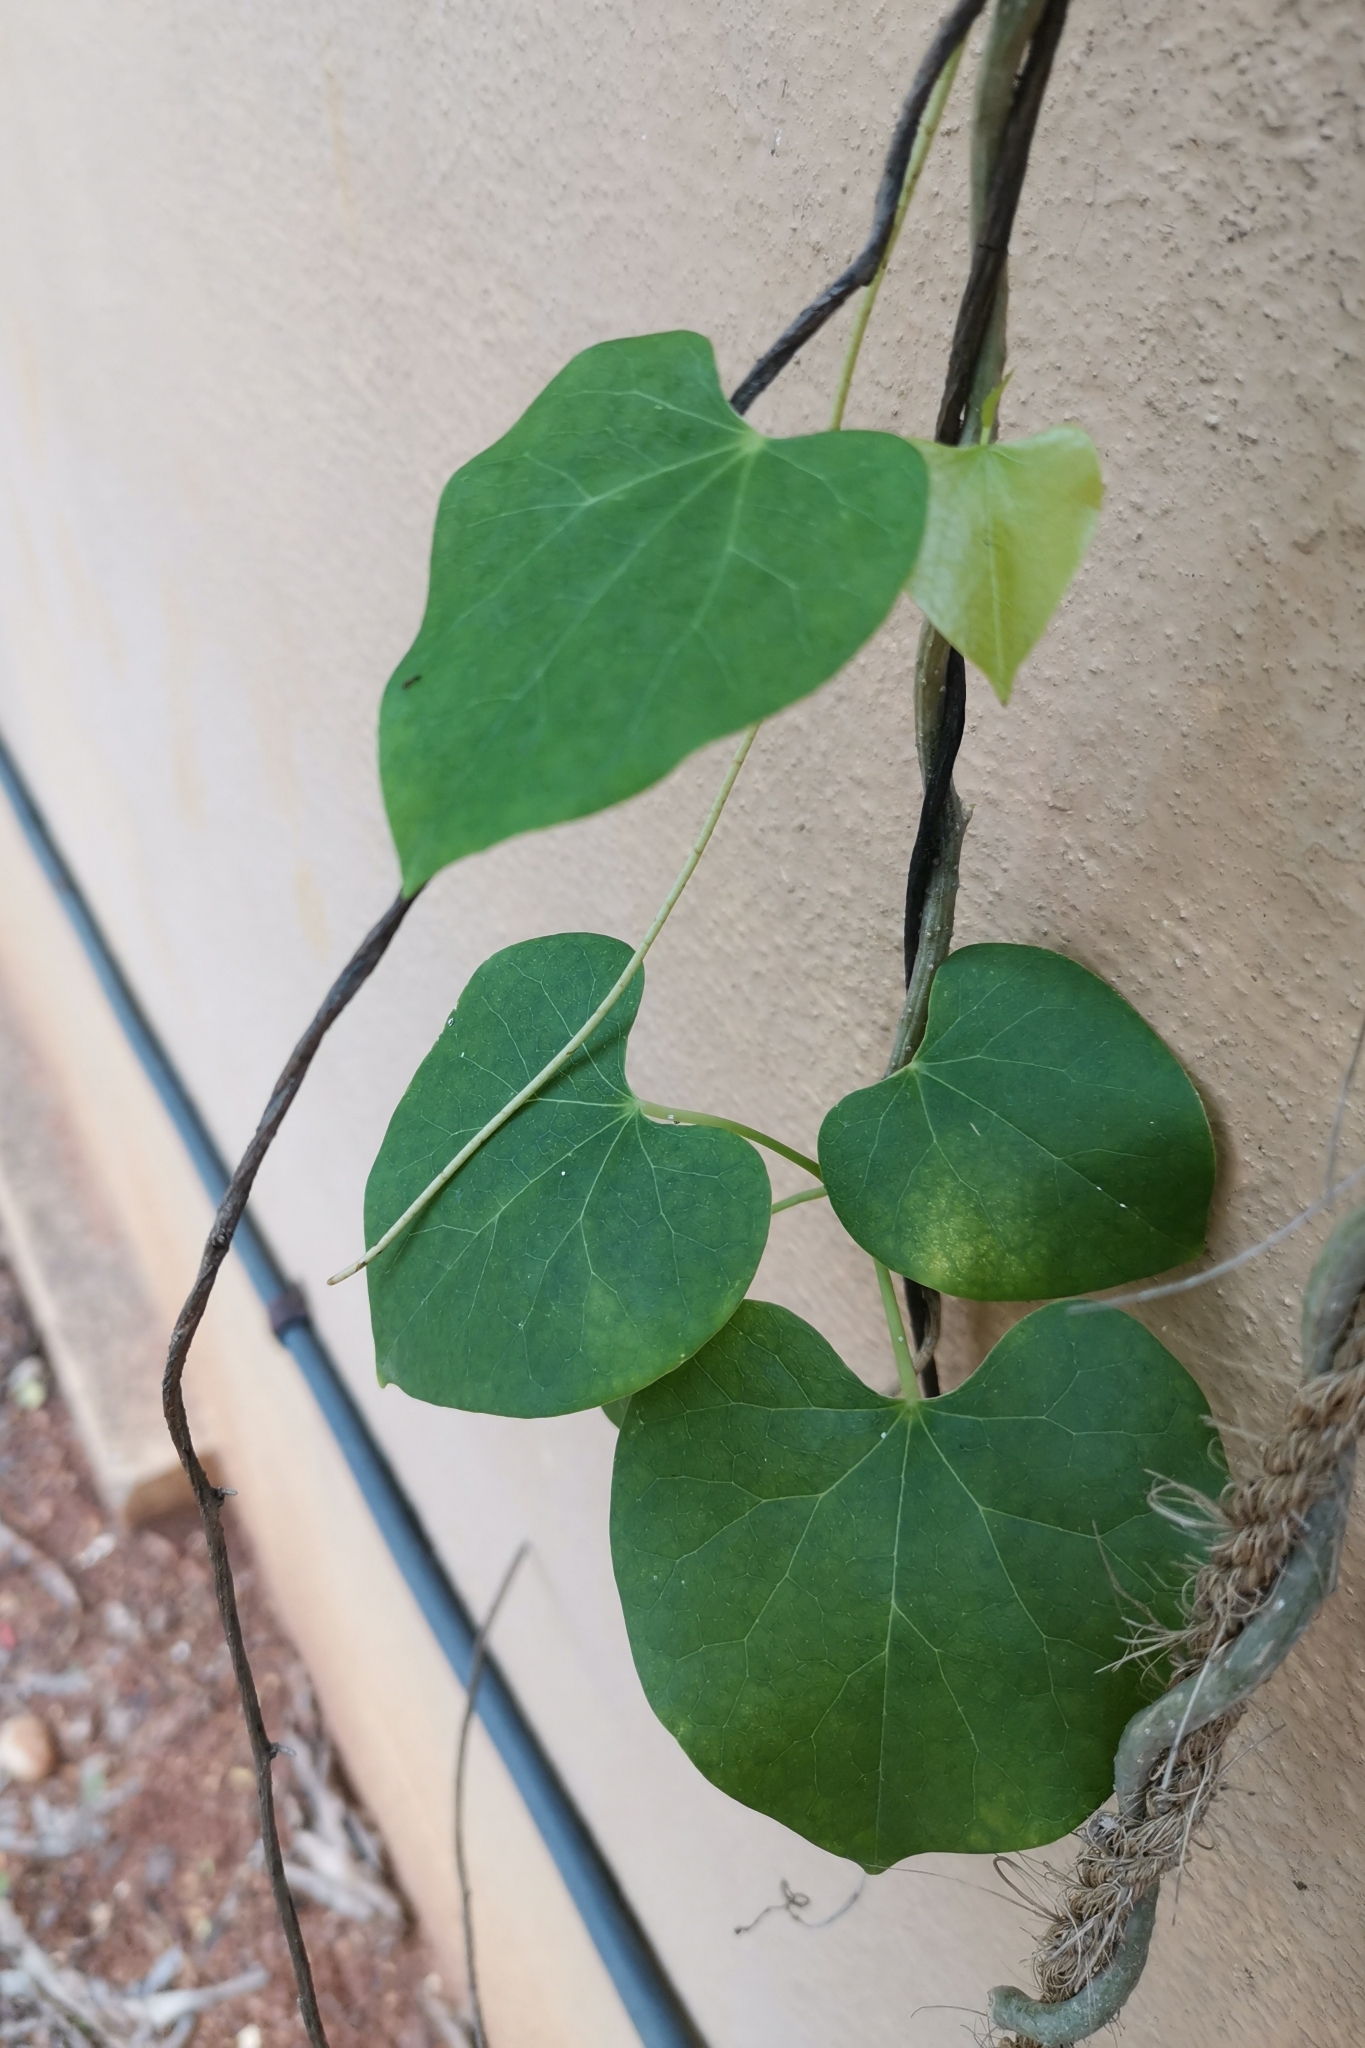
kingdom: Plantae
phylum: Tracheophyta
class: Magnoliopsida
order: Ranunculales
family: Menispermaceae
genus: Tinospora
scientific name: Tinospora cordifolia
